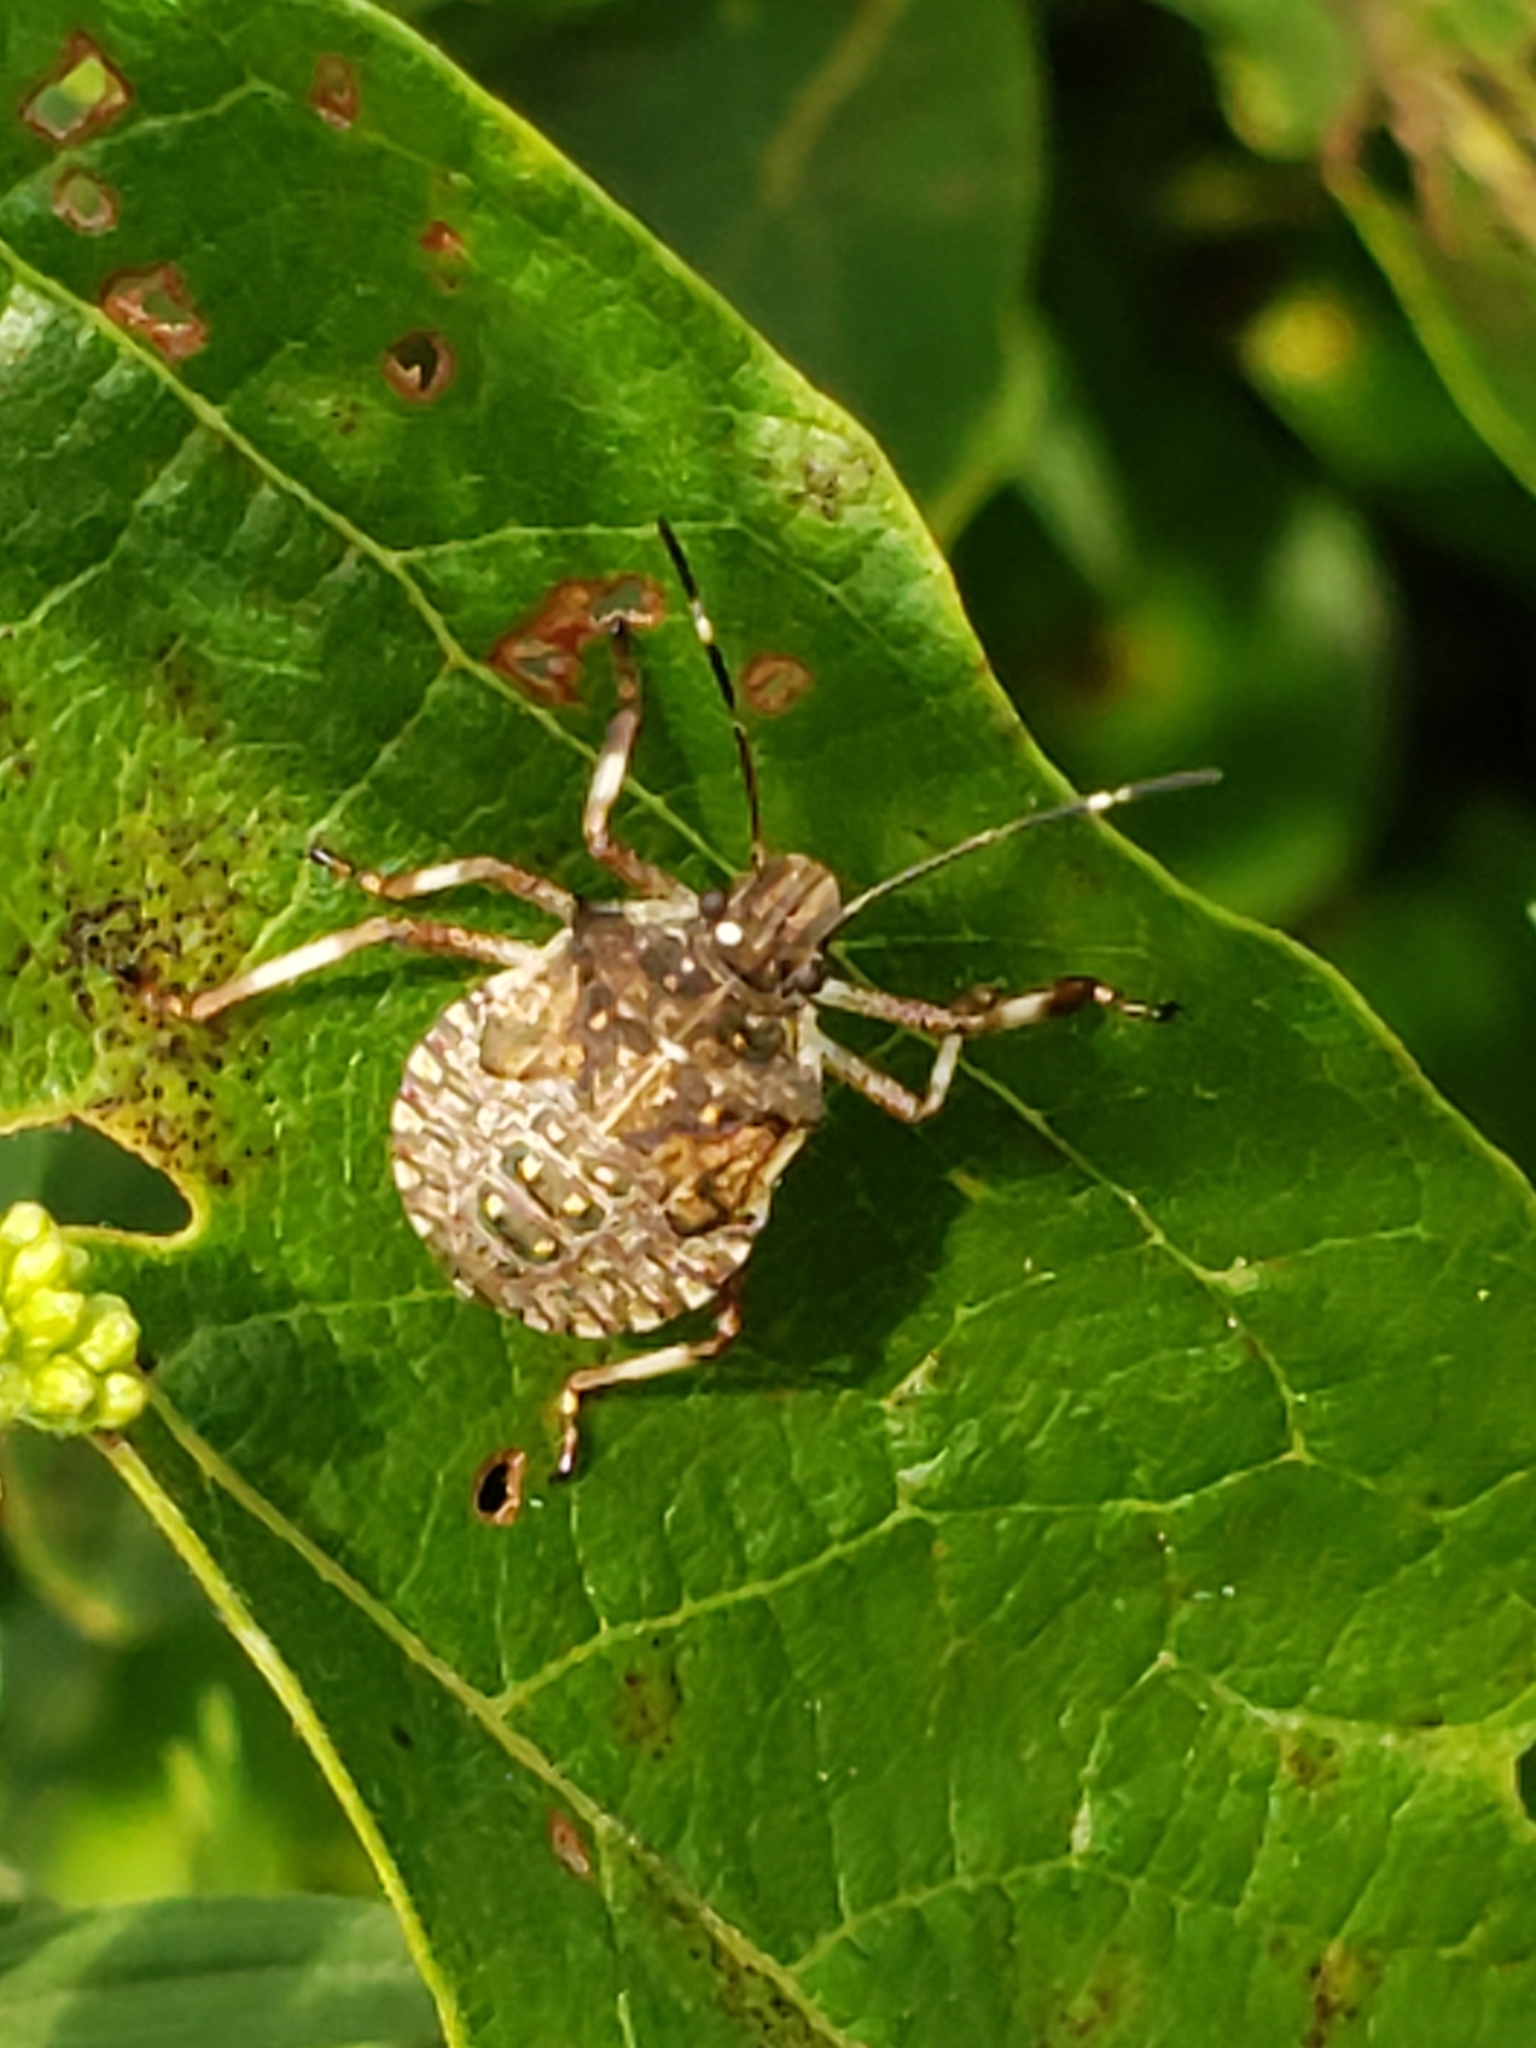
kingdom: Animalia
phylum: Arthropoda
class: Insecta
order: Hemiptera
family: Pentatomidae
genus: Halyomorpha
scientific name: Halyomorpha halys
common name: Brown marmorated stink bug
